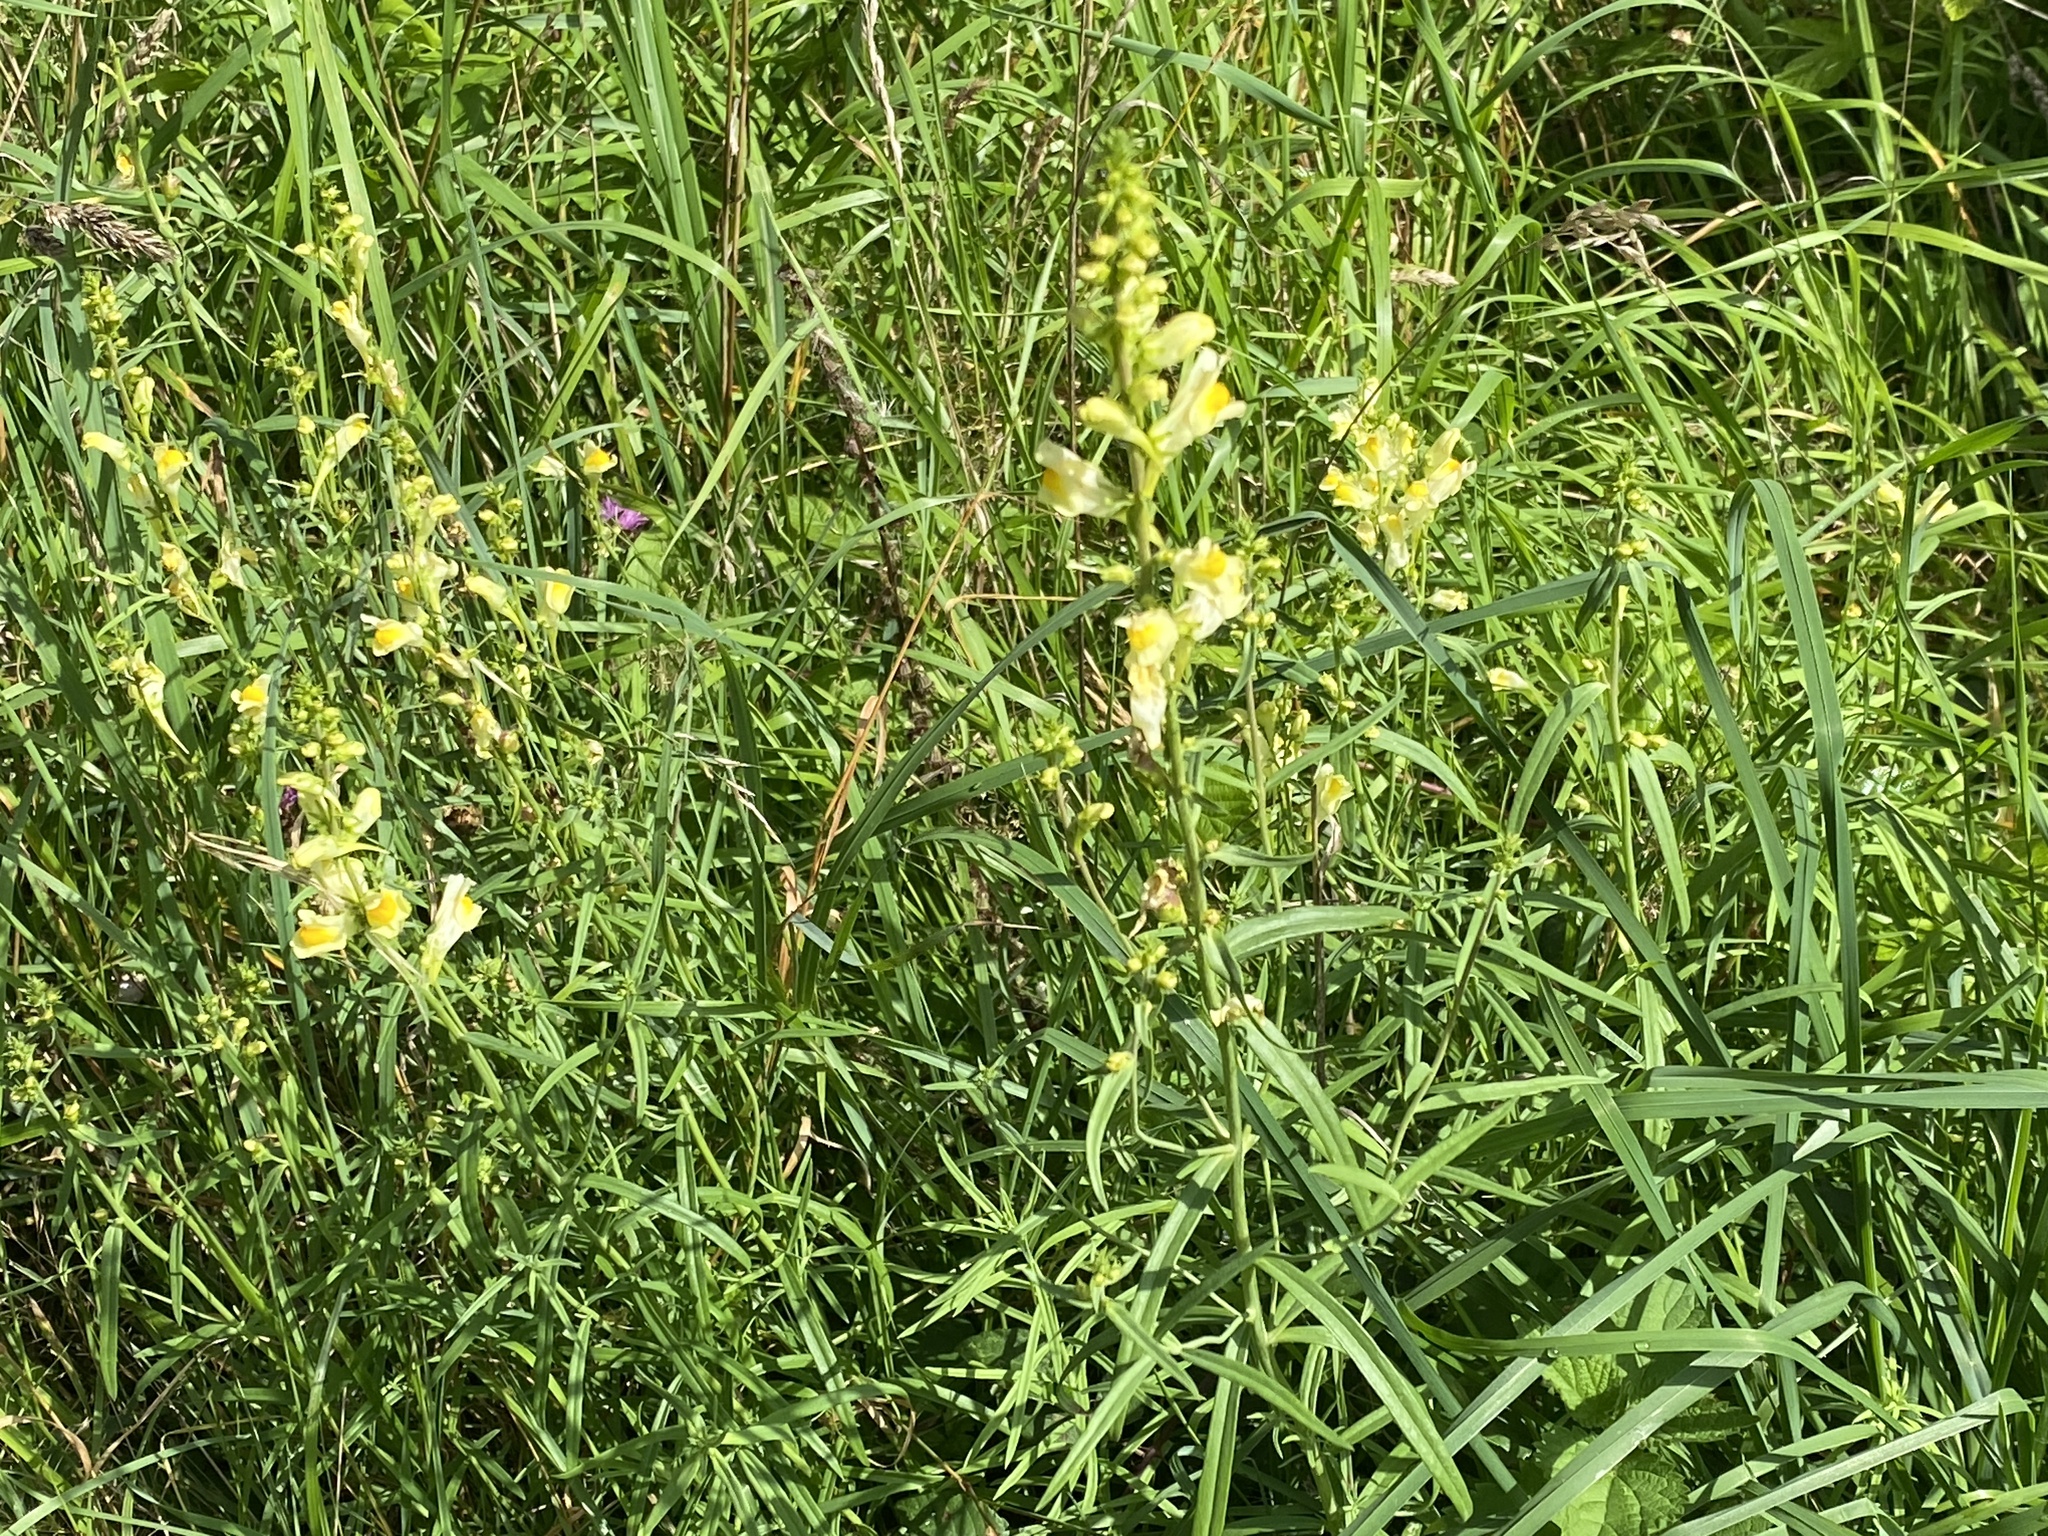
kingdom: Plantae
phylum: Tracheophyta
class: Magnoliopsida
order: Lamiales
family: Plantaginaceae
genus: Linaria
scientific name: Linaria vulgaris
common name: Butter and eggs
